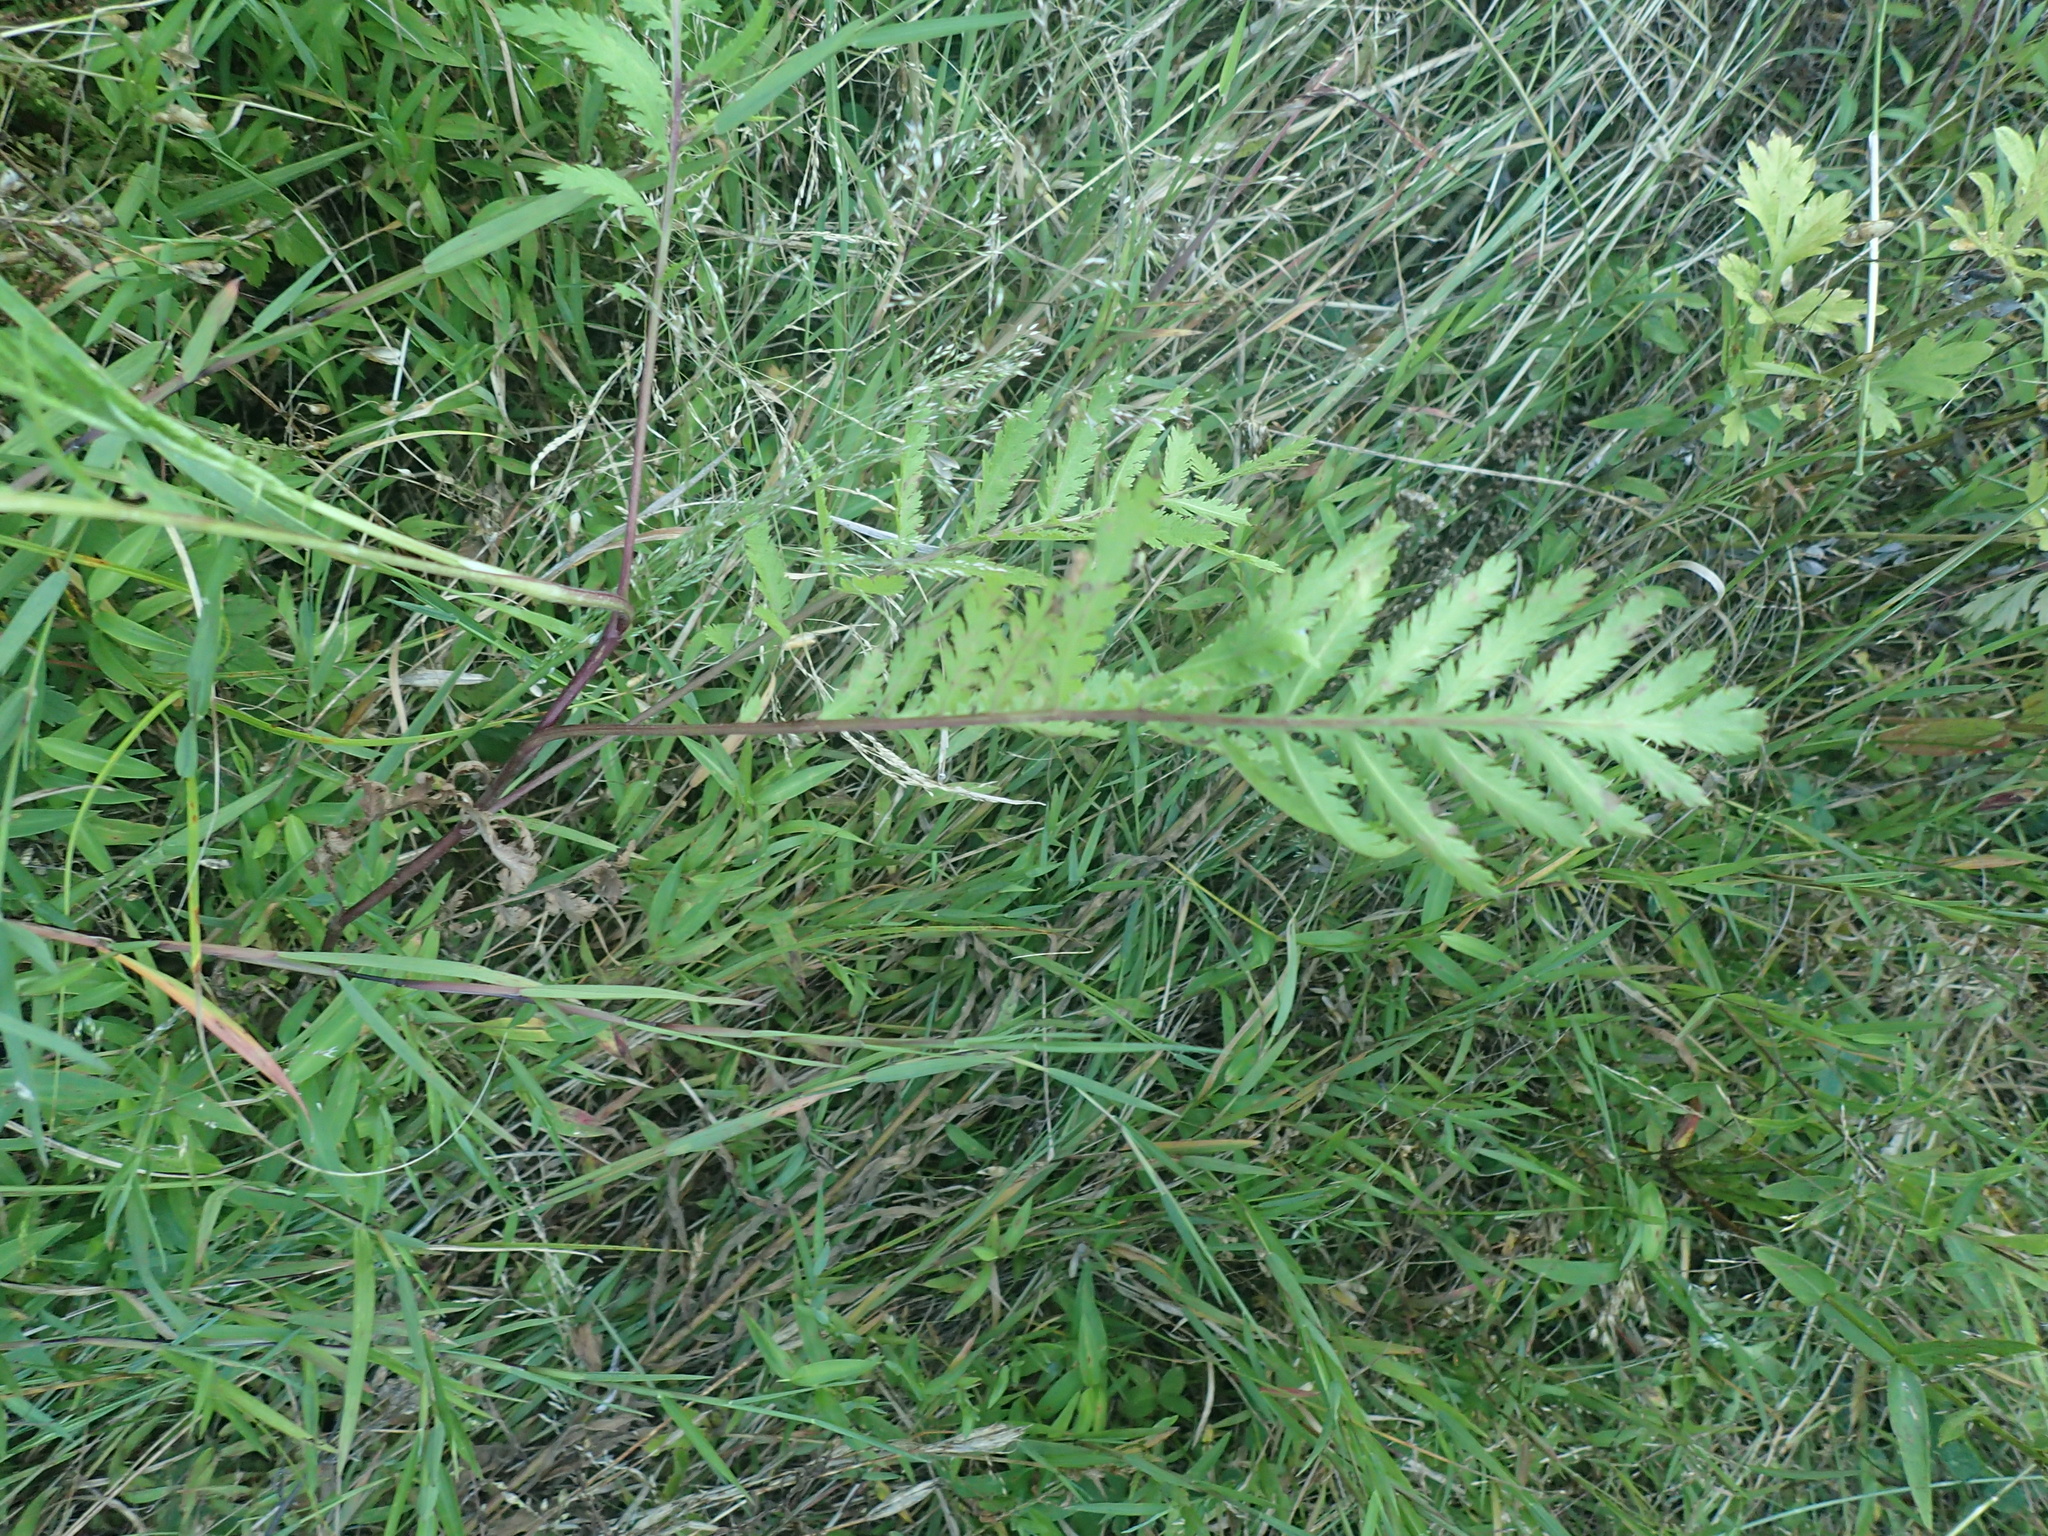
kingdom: Plantae
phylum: Tracheophyta
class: Magnoliopsida
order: Asterales
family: Asteraceae
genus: Tanacetum
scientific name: Tanacetum vulgare
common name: Common tansy
